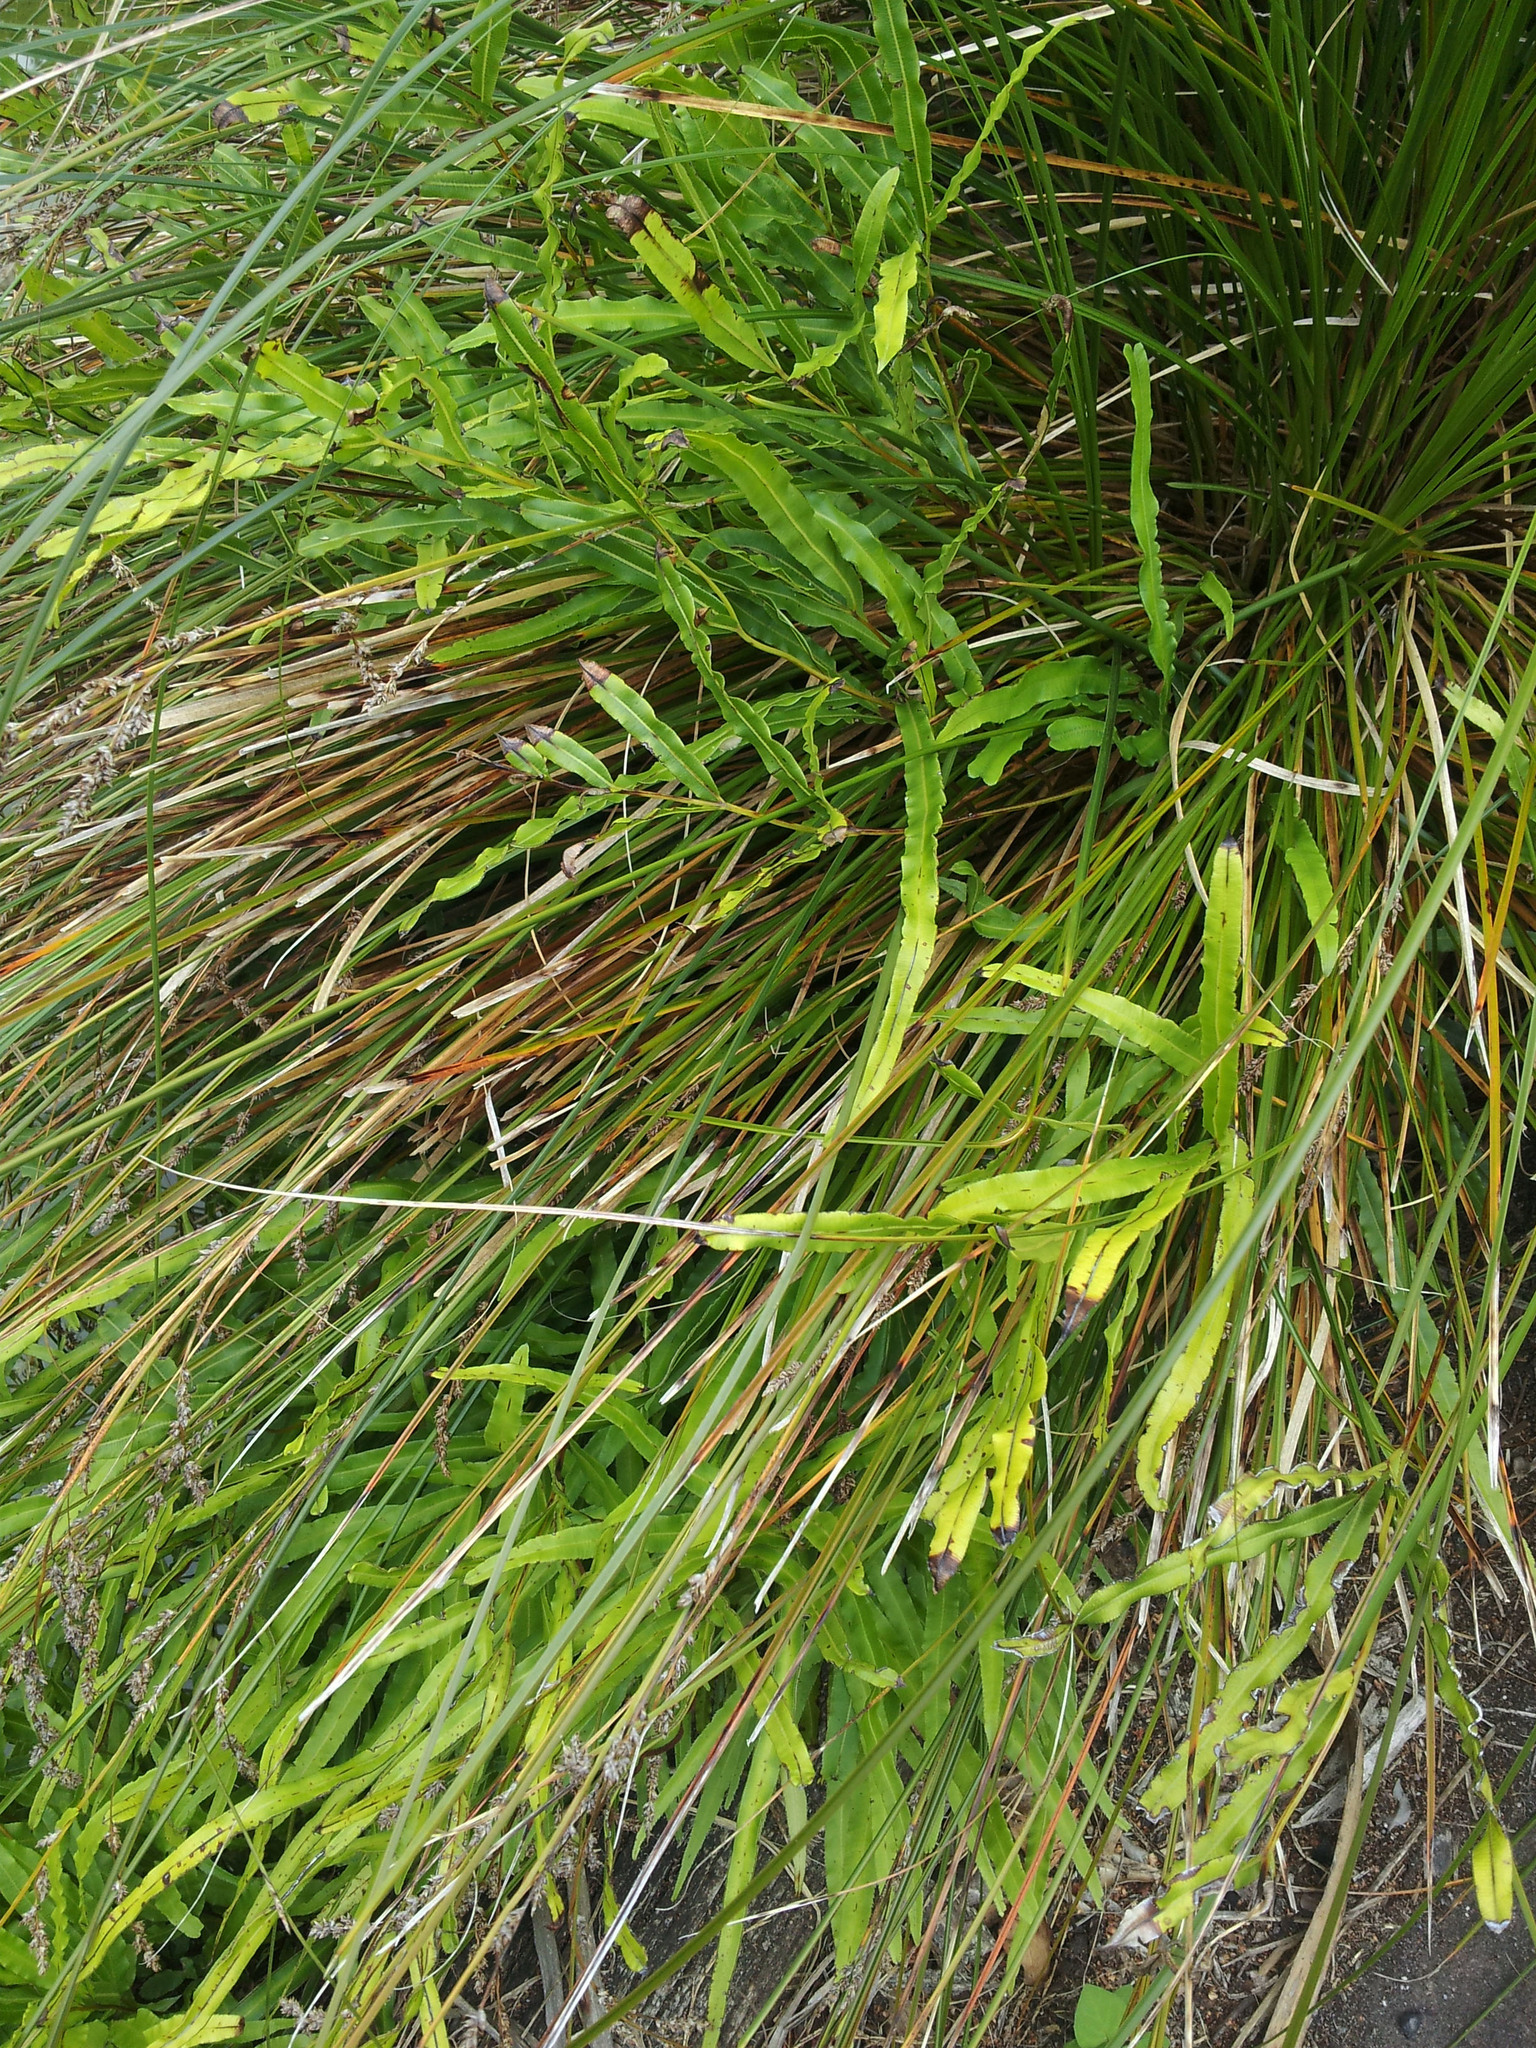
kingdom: Plantae
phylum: Tracheophyta
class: Polypodiopsida
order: Polypodiales
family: Pteridaceae
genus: Pteris
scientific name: Pteris cretica
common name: Ribbon fern
